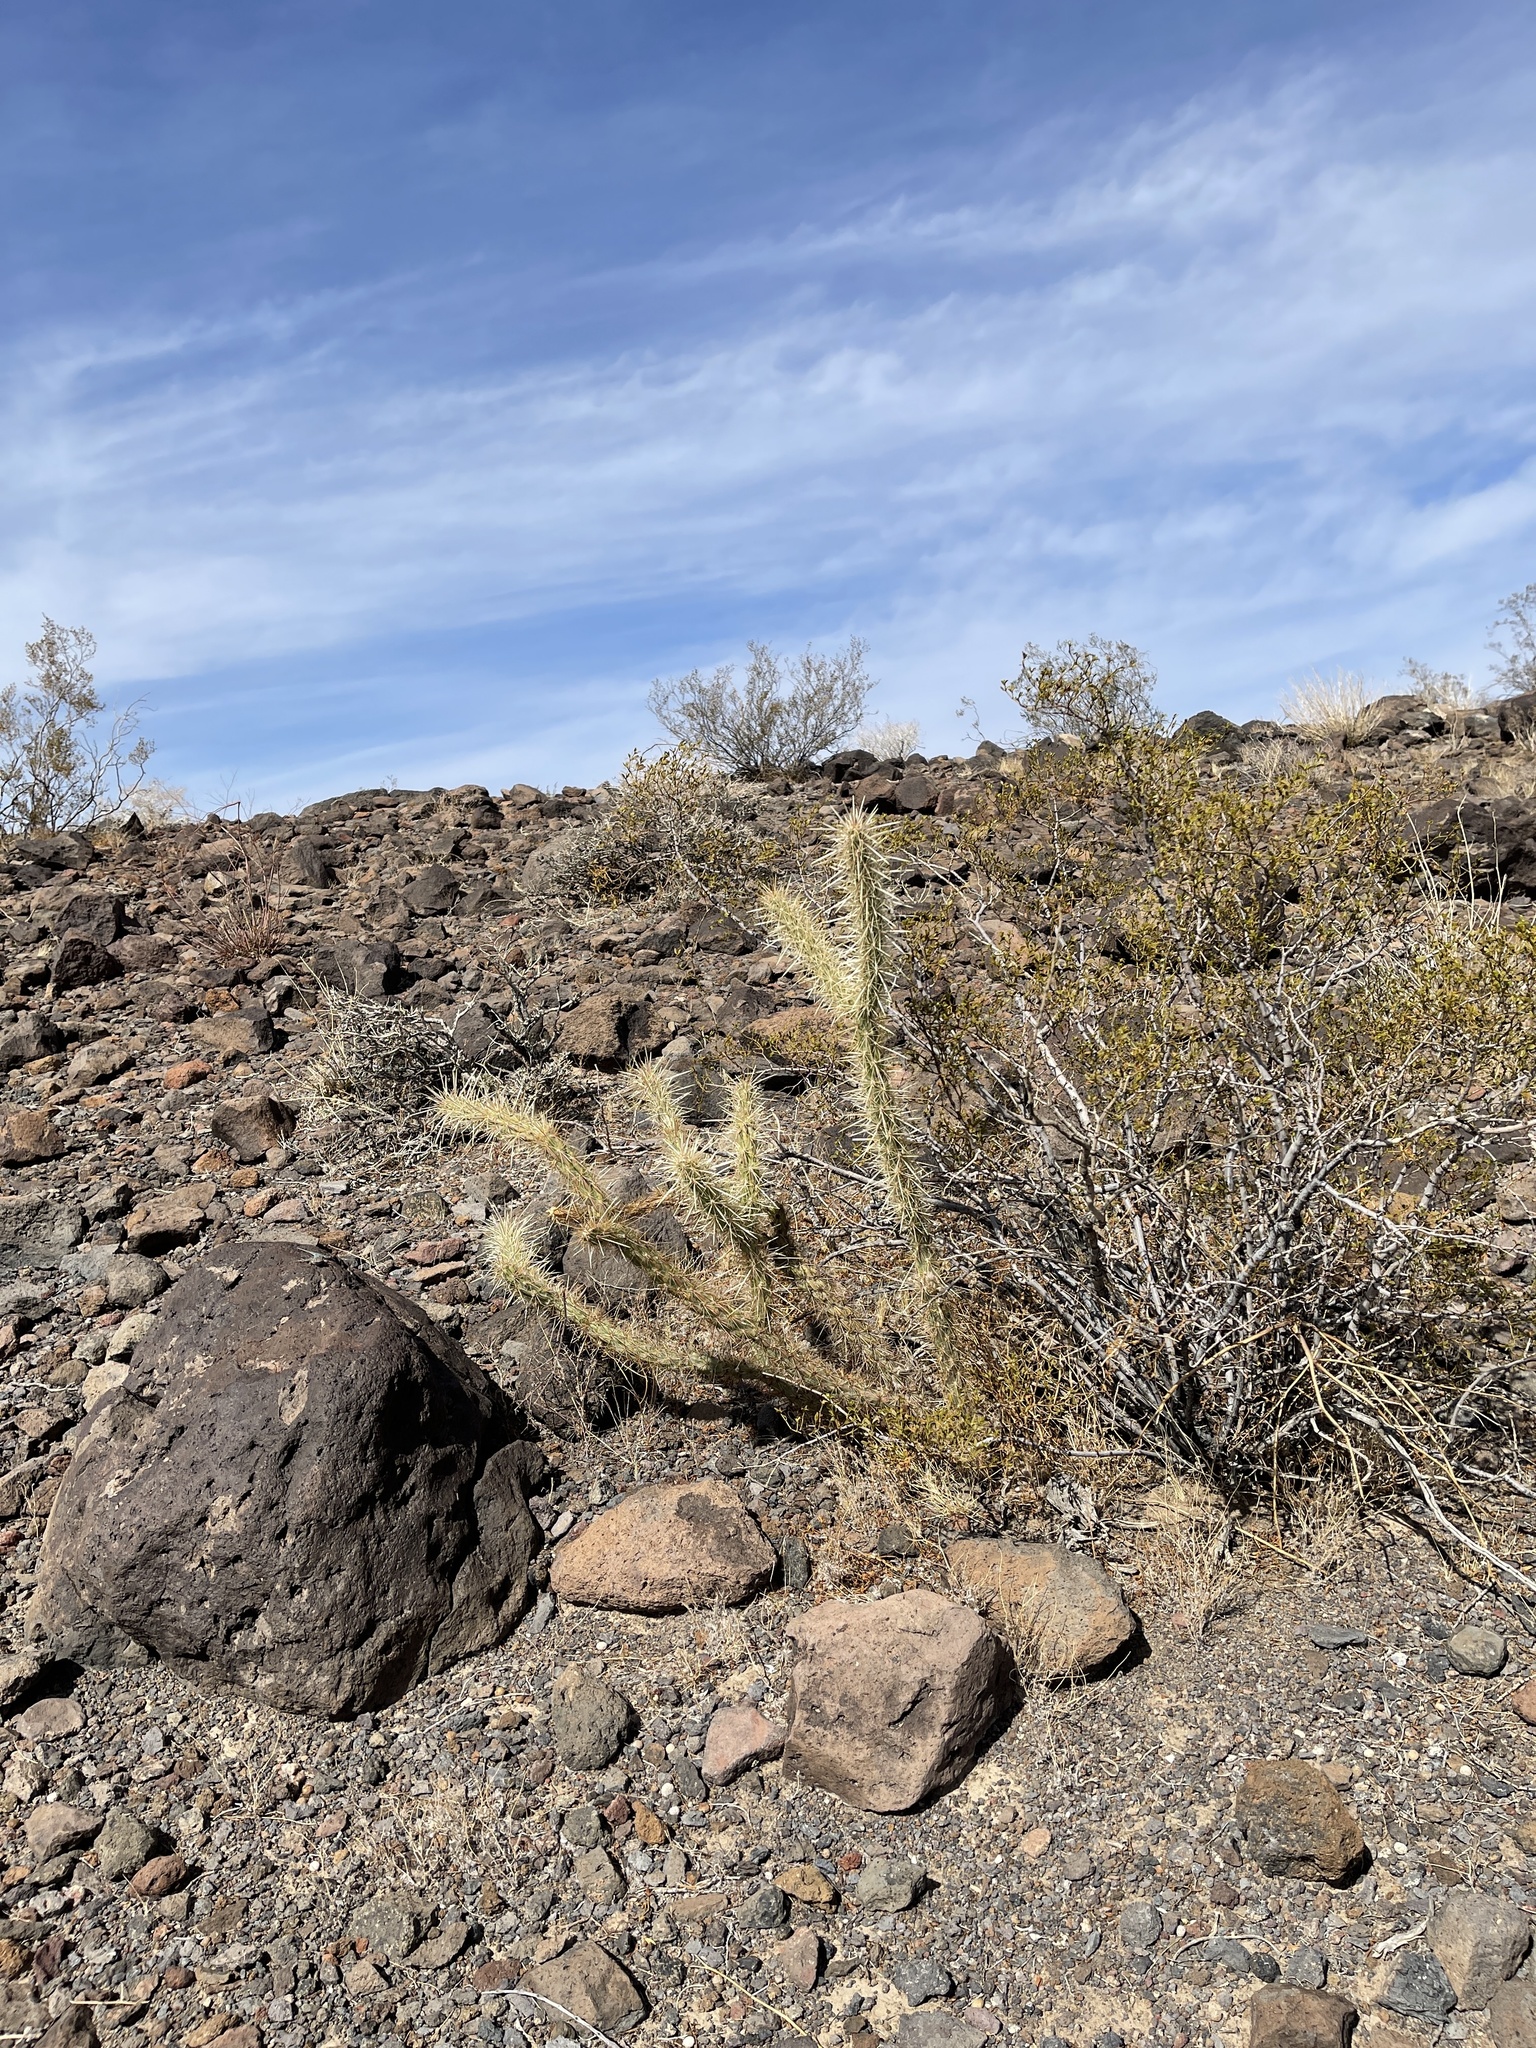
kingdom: Plantae
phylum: Tracheophyta
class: Magnoliopsida
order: Caryophyllales
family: Cactaceae
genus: Cylindropuntia
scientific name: Cylindropuntia acanthocarpa
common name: Buckhorn cholla
